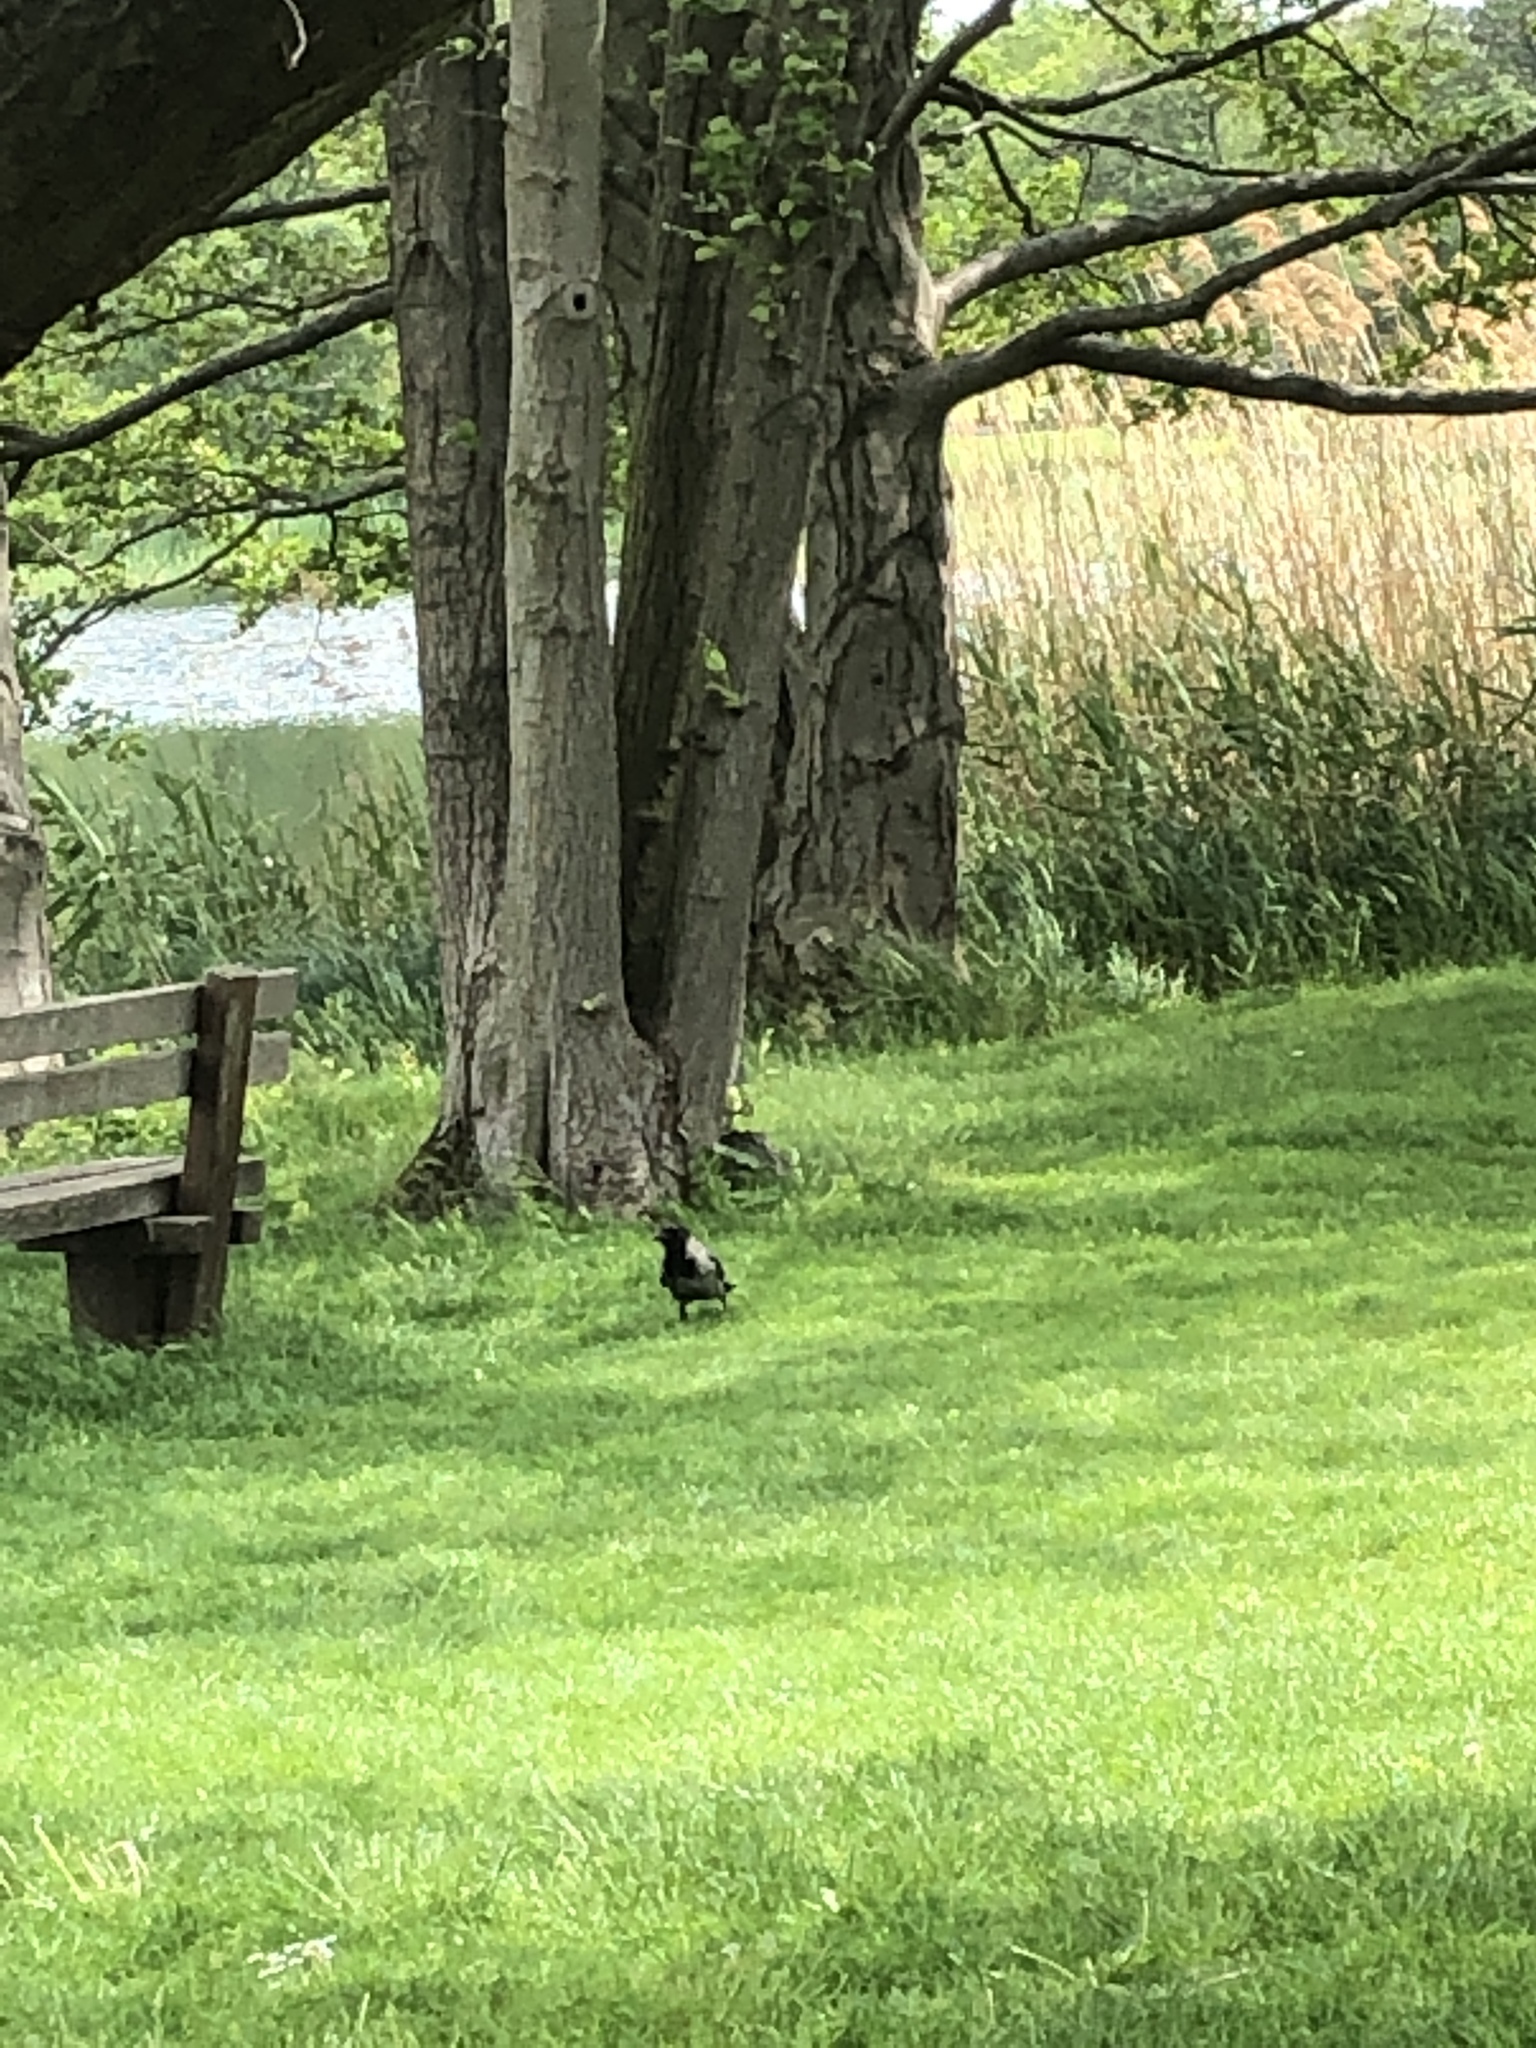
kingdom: Animalia
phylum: Chordata
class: Aves
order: Passeriformes
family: Corvidae
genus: Corvus
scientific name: Corvus cornix
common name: Hooded crow
